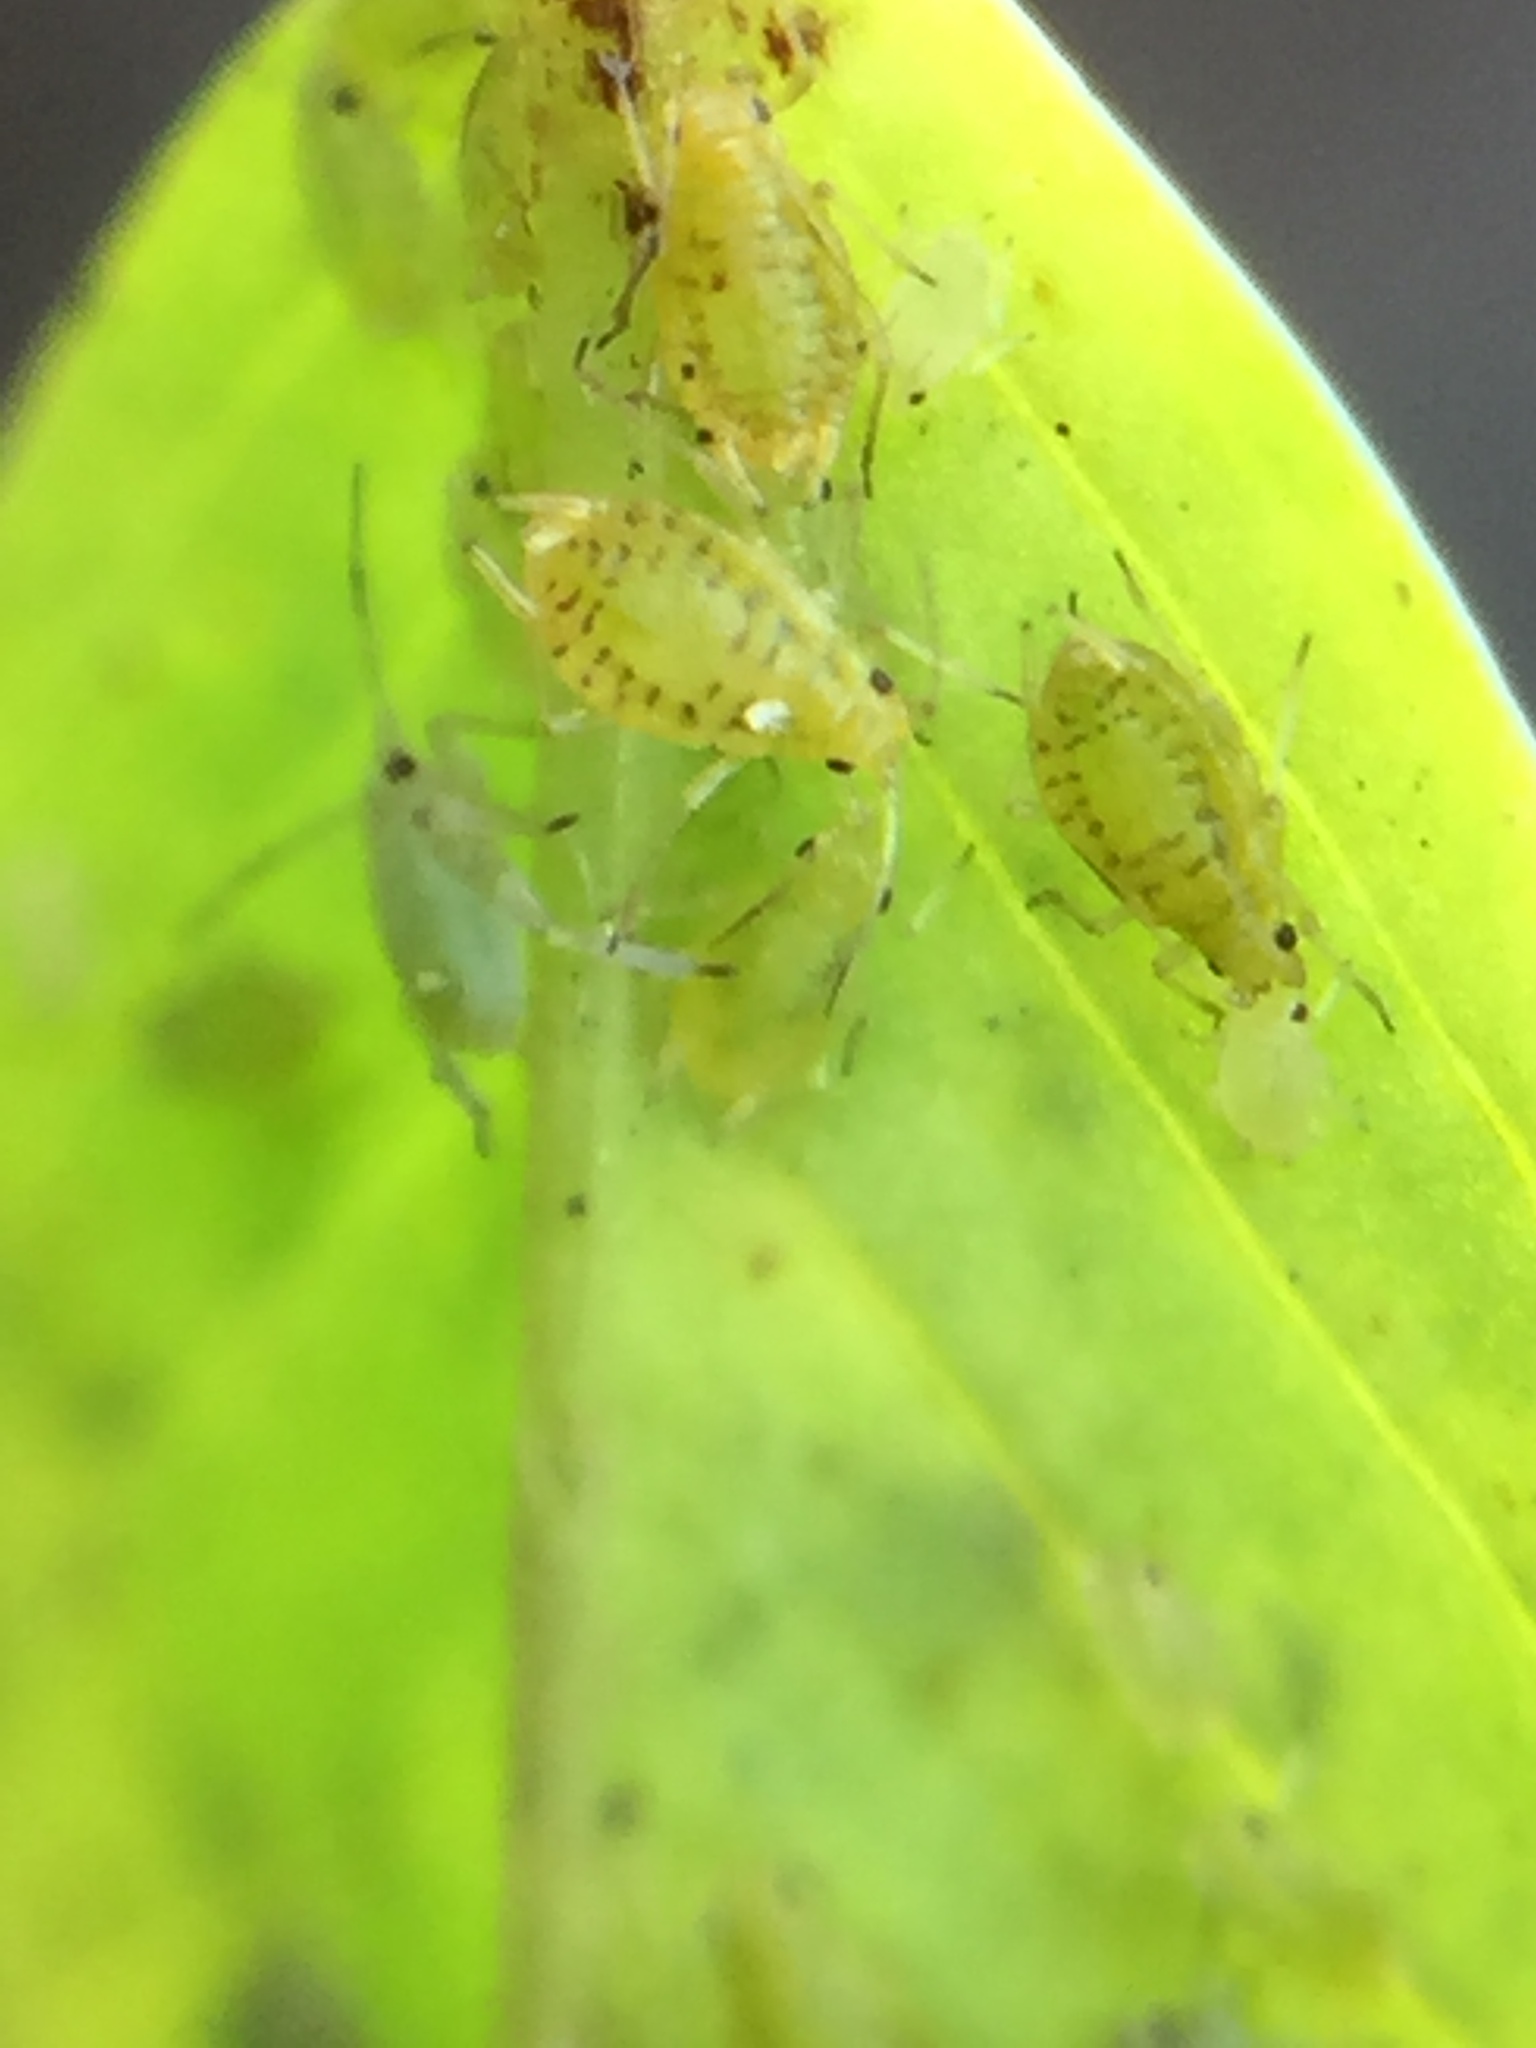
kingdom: Animalia
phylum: Arthropoda
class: Insecta
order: Hemiptera
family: Aphididae
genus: Myzus
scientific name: Myzus ornatus
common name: Ornate aphid
